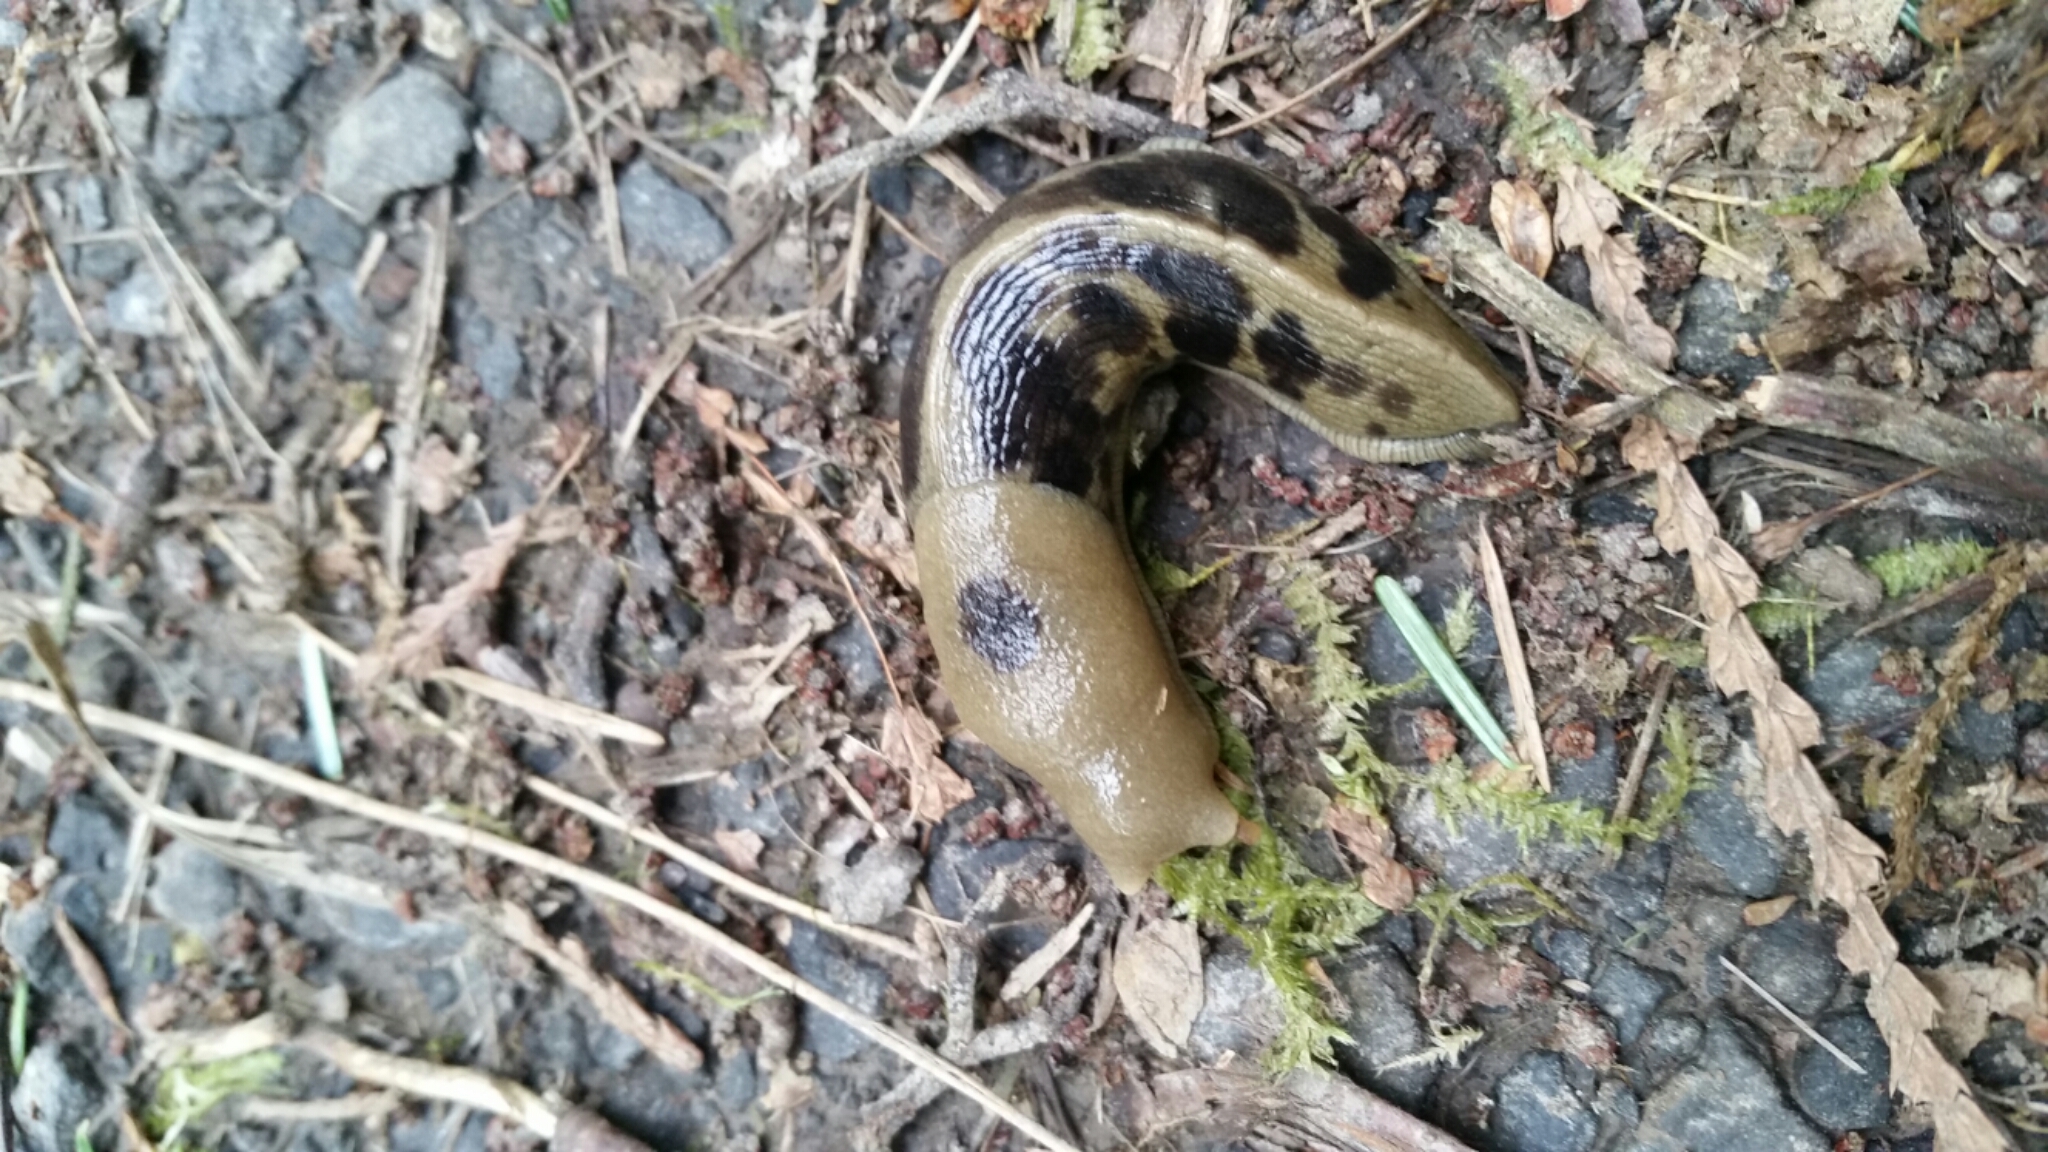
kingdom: Animalia
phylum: Mollusca
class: Gastropoda
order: Stylommatophora
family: Ariolimacidae
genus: Ariolimax
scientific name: Ariolimax columbianus
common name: Pacific banana slug
